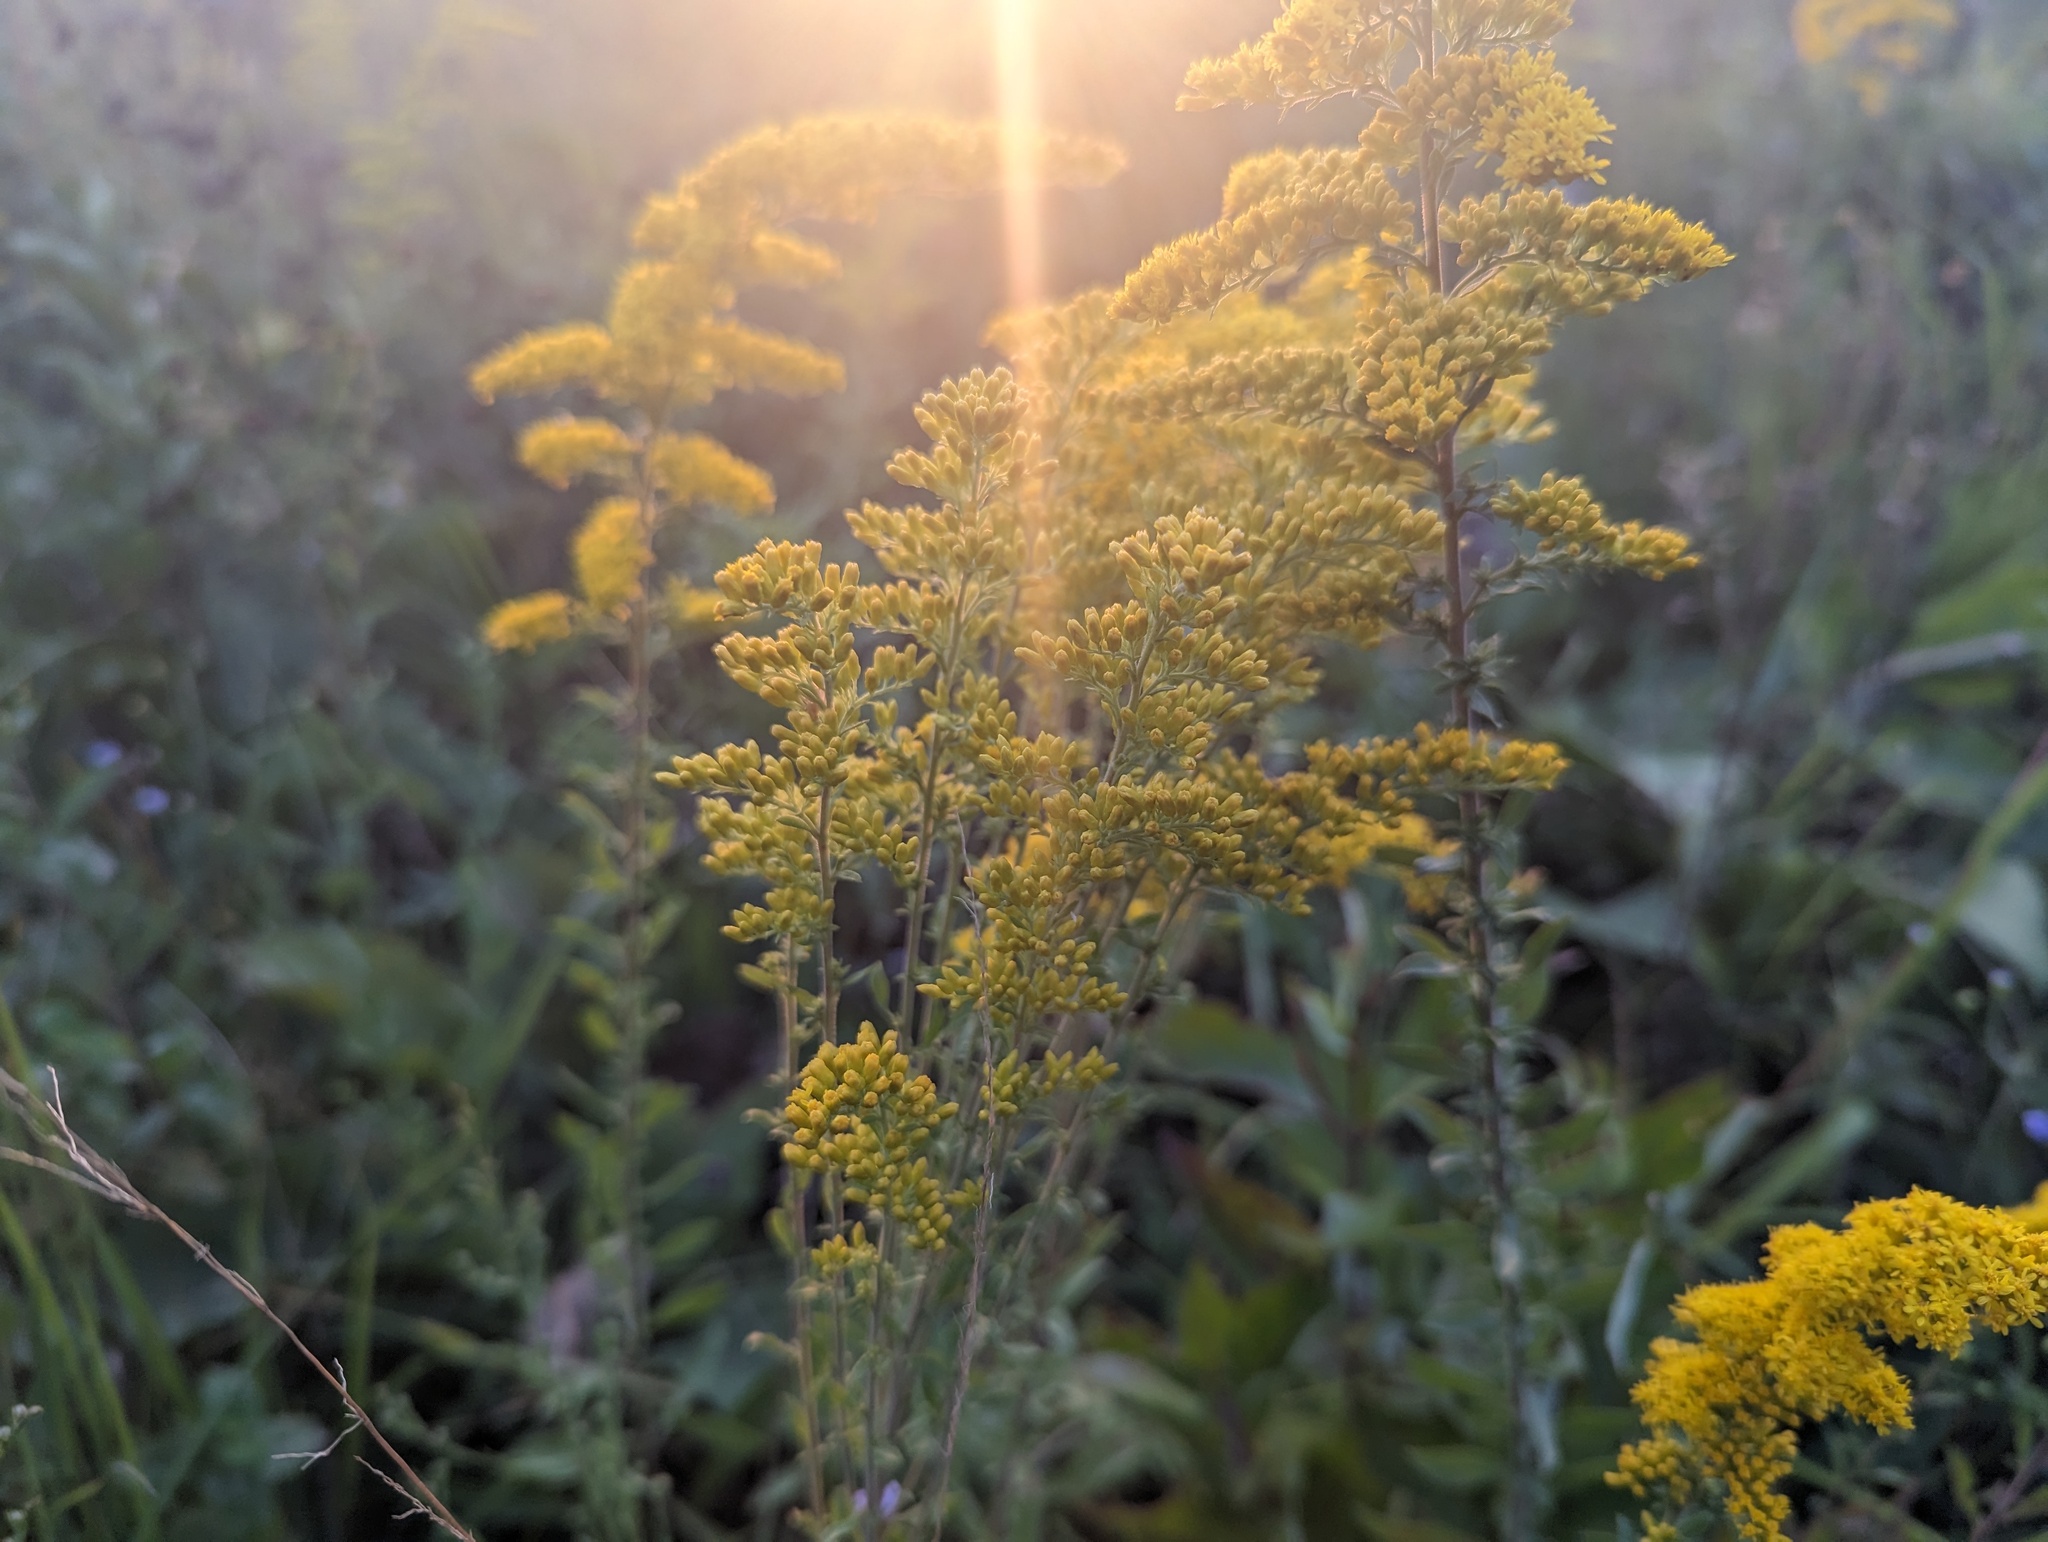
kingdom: Plantae
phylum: Tracheophyta
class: Magnoliopsida
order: Asterales
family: Asteraceae
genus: Solidago
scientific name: Solidago nemoralis
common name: Grey goldenrod
